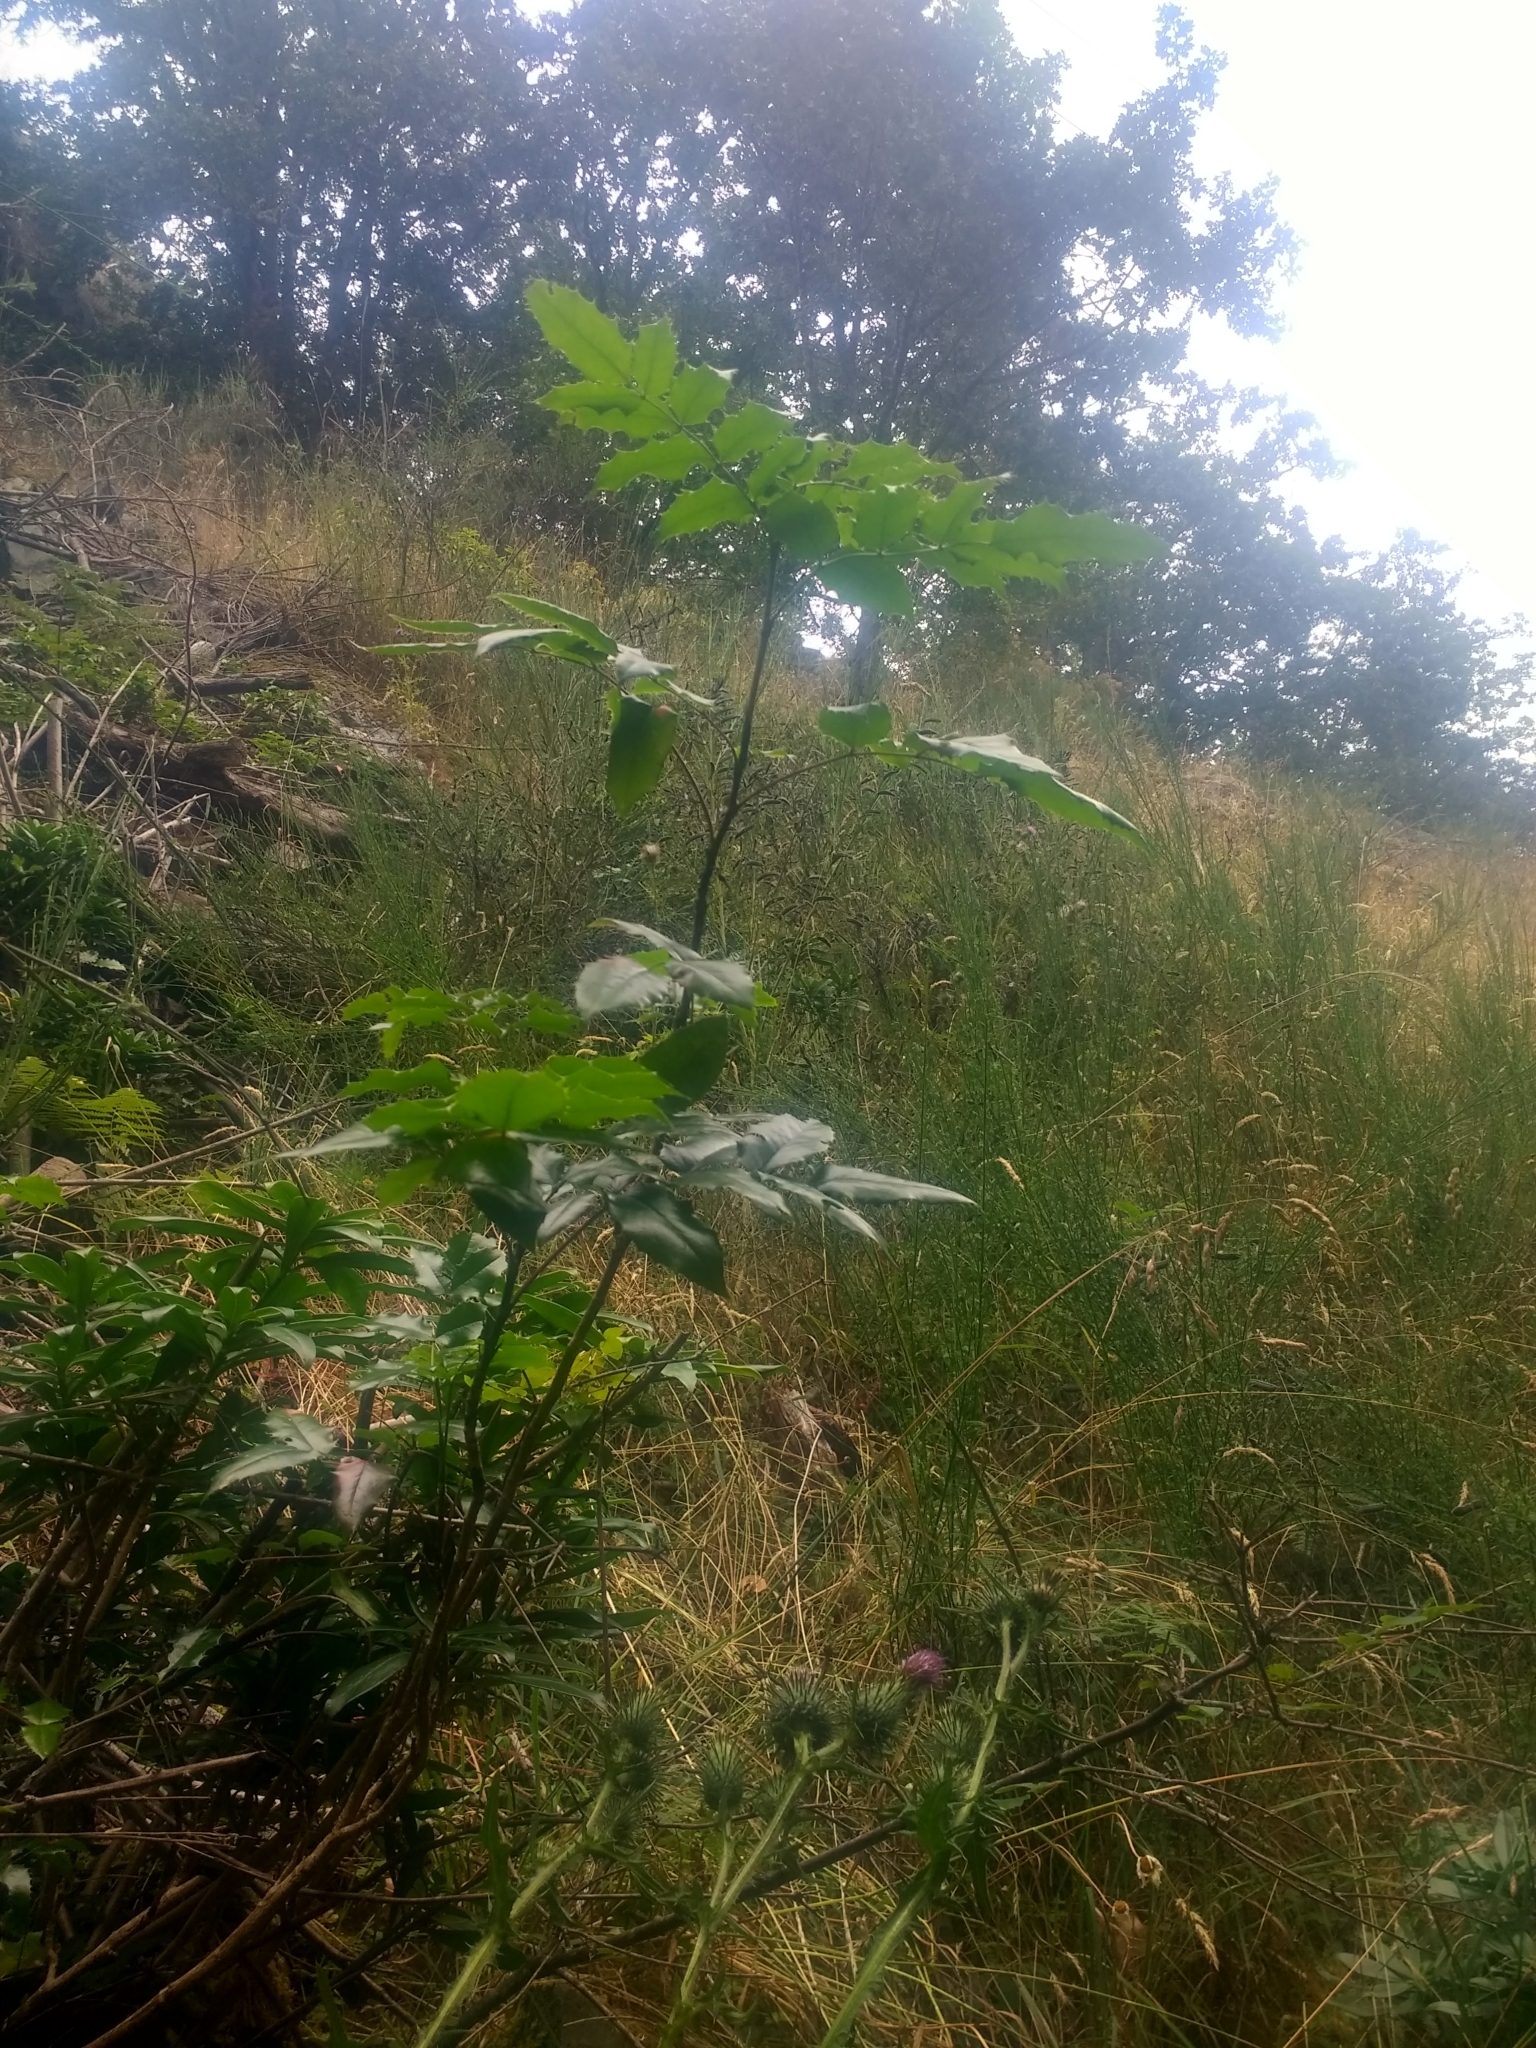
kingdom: Plantae
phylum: Tracheophyta
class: Magnoliopsida
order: Ranunculales
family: Berberidaceae
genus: Mahonia
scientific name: Mahonia aquifolium
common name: Oregon-grape
